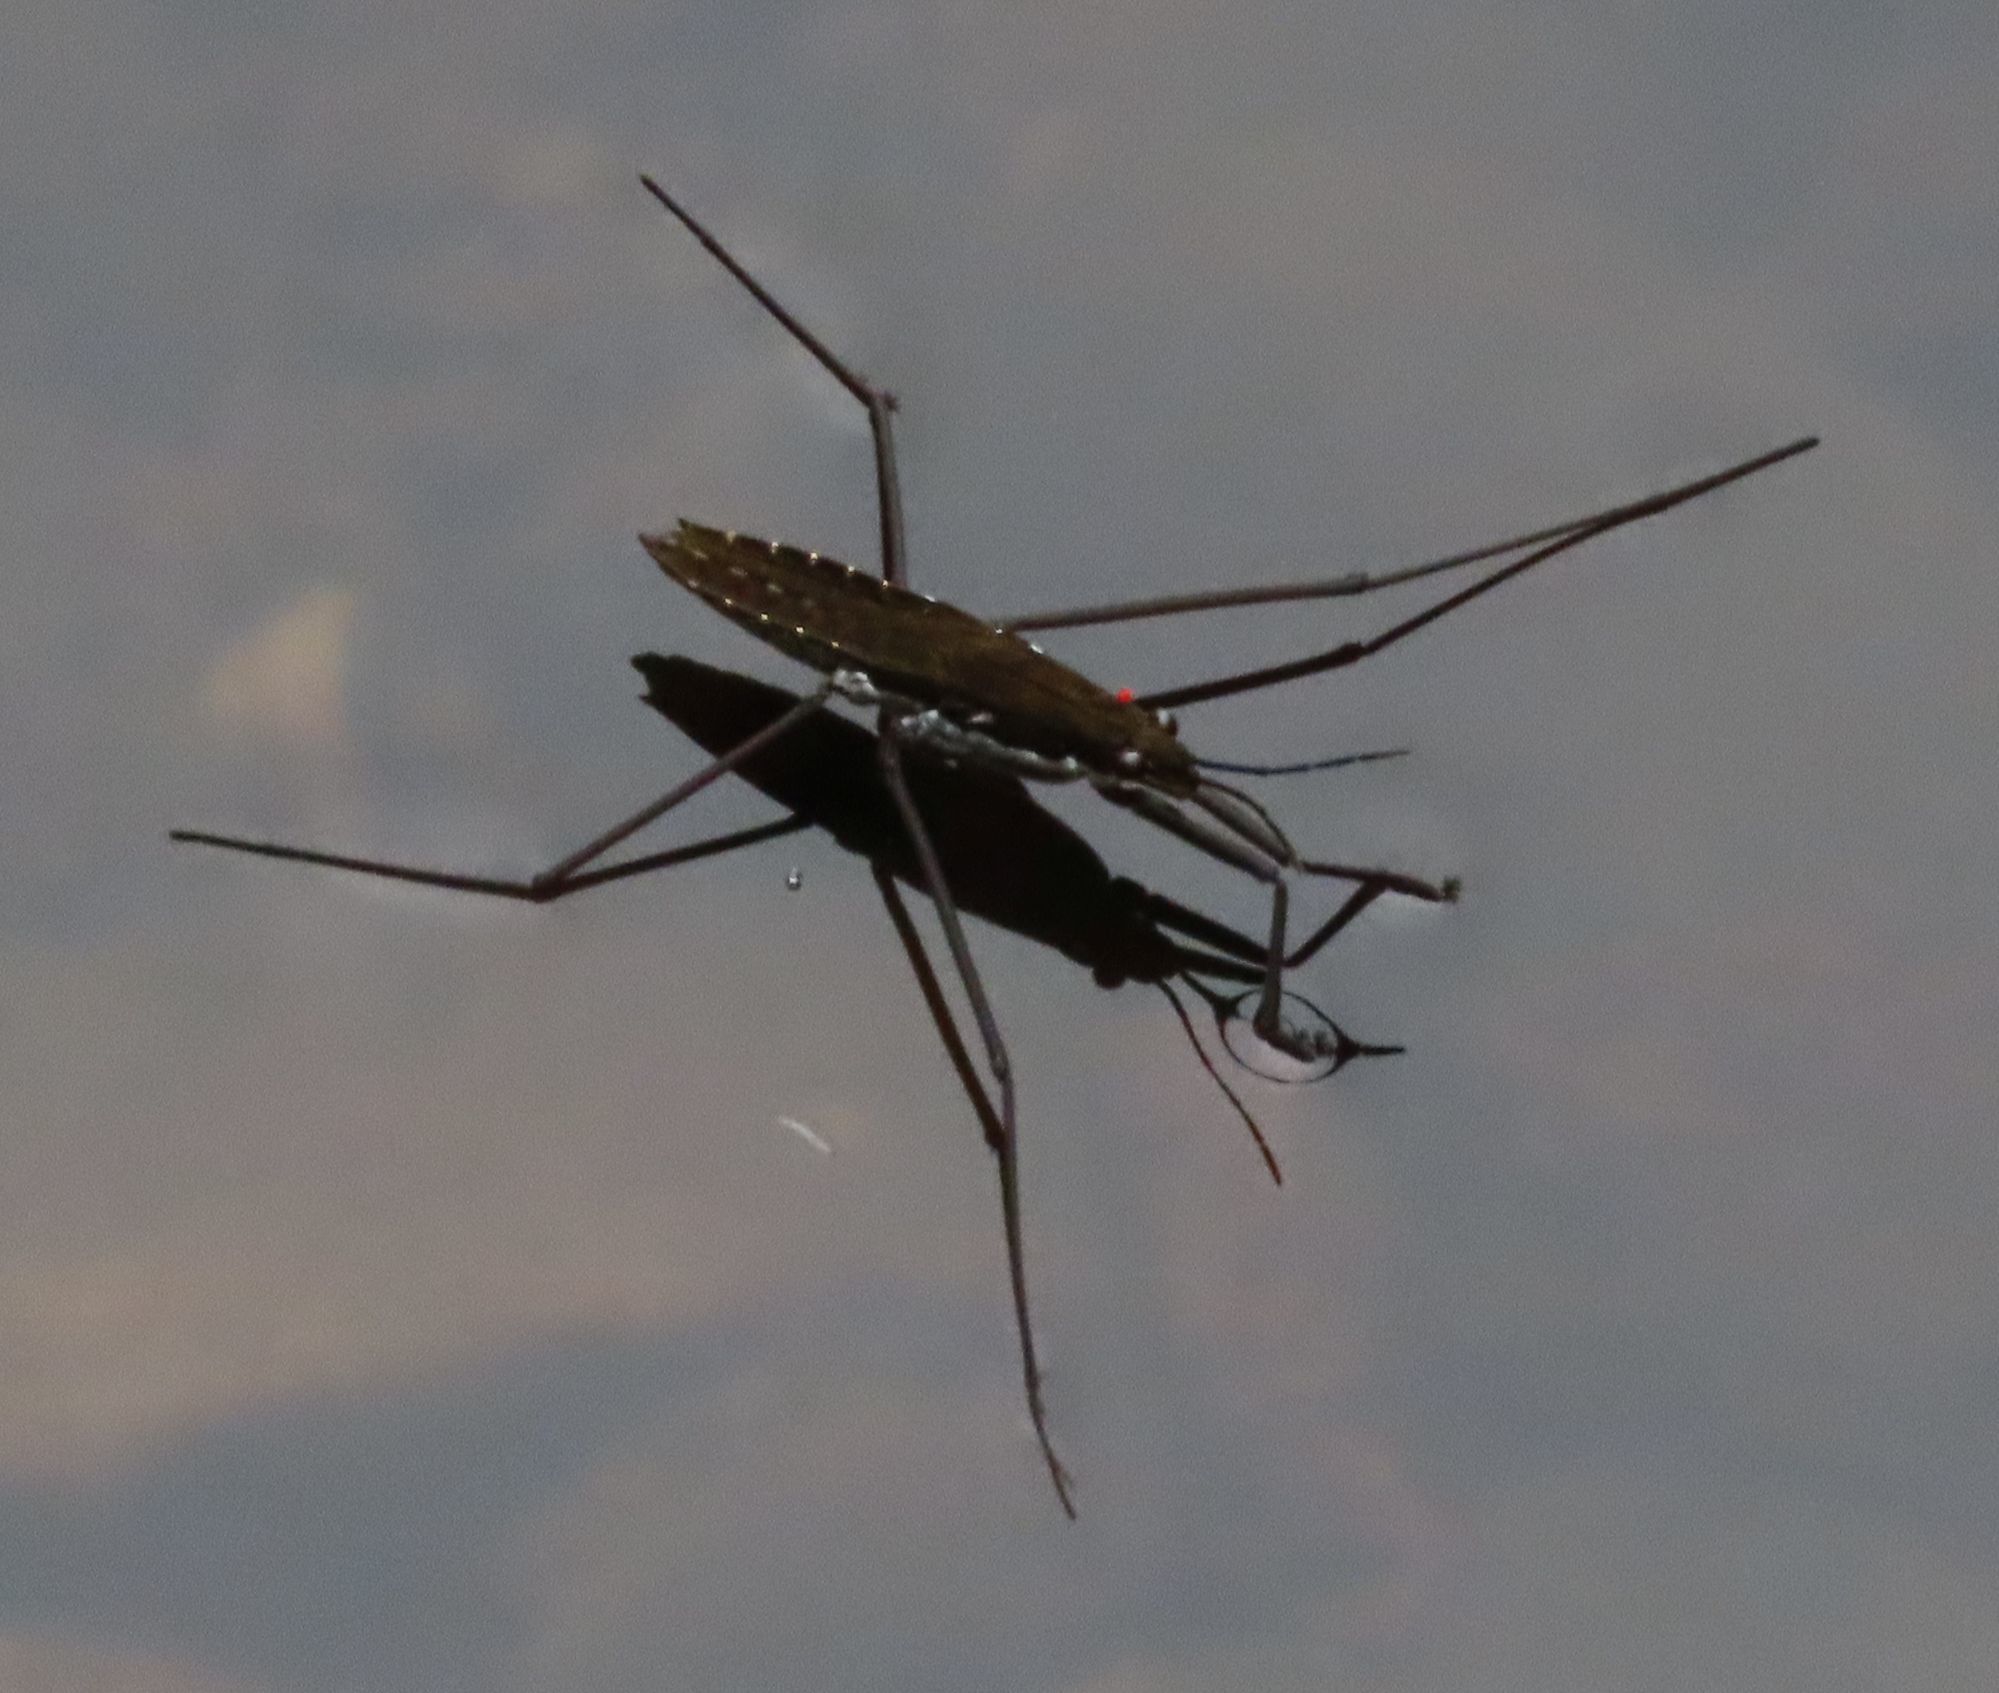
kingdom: Animalia
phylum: Arthropoda
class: Insecta
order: Hemiptera
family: Gerridae
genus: Aquarius
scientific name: Aquarius remigis
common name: Common water strider
